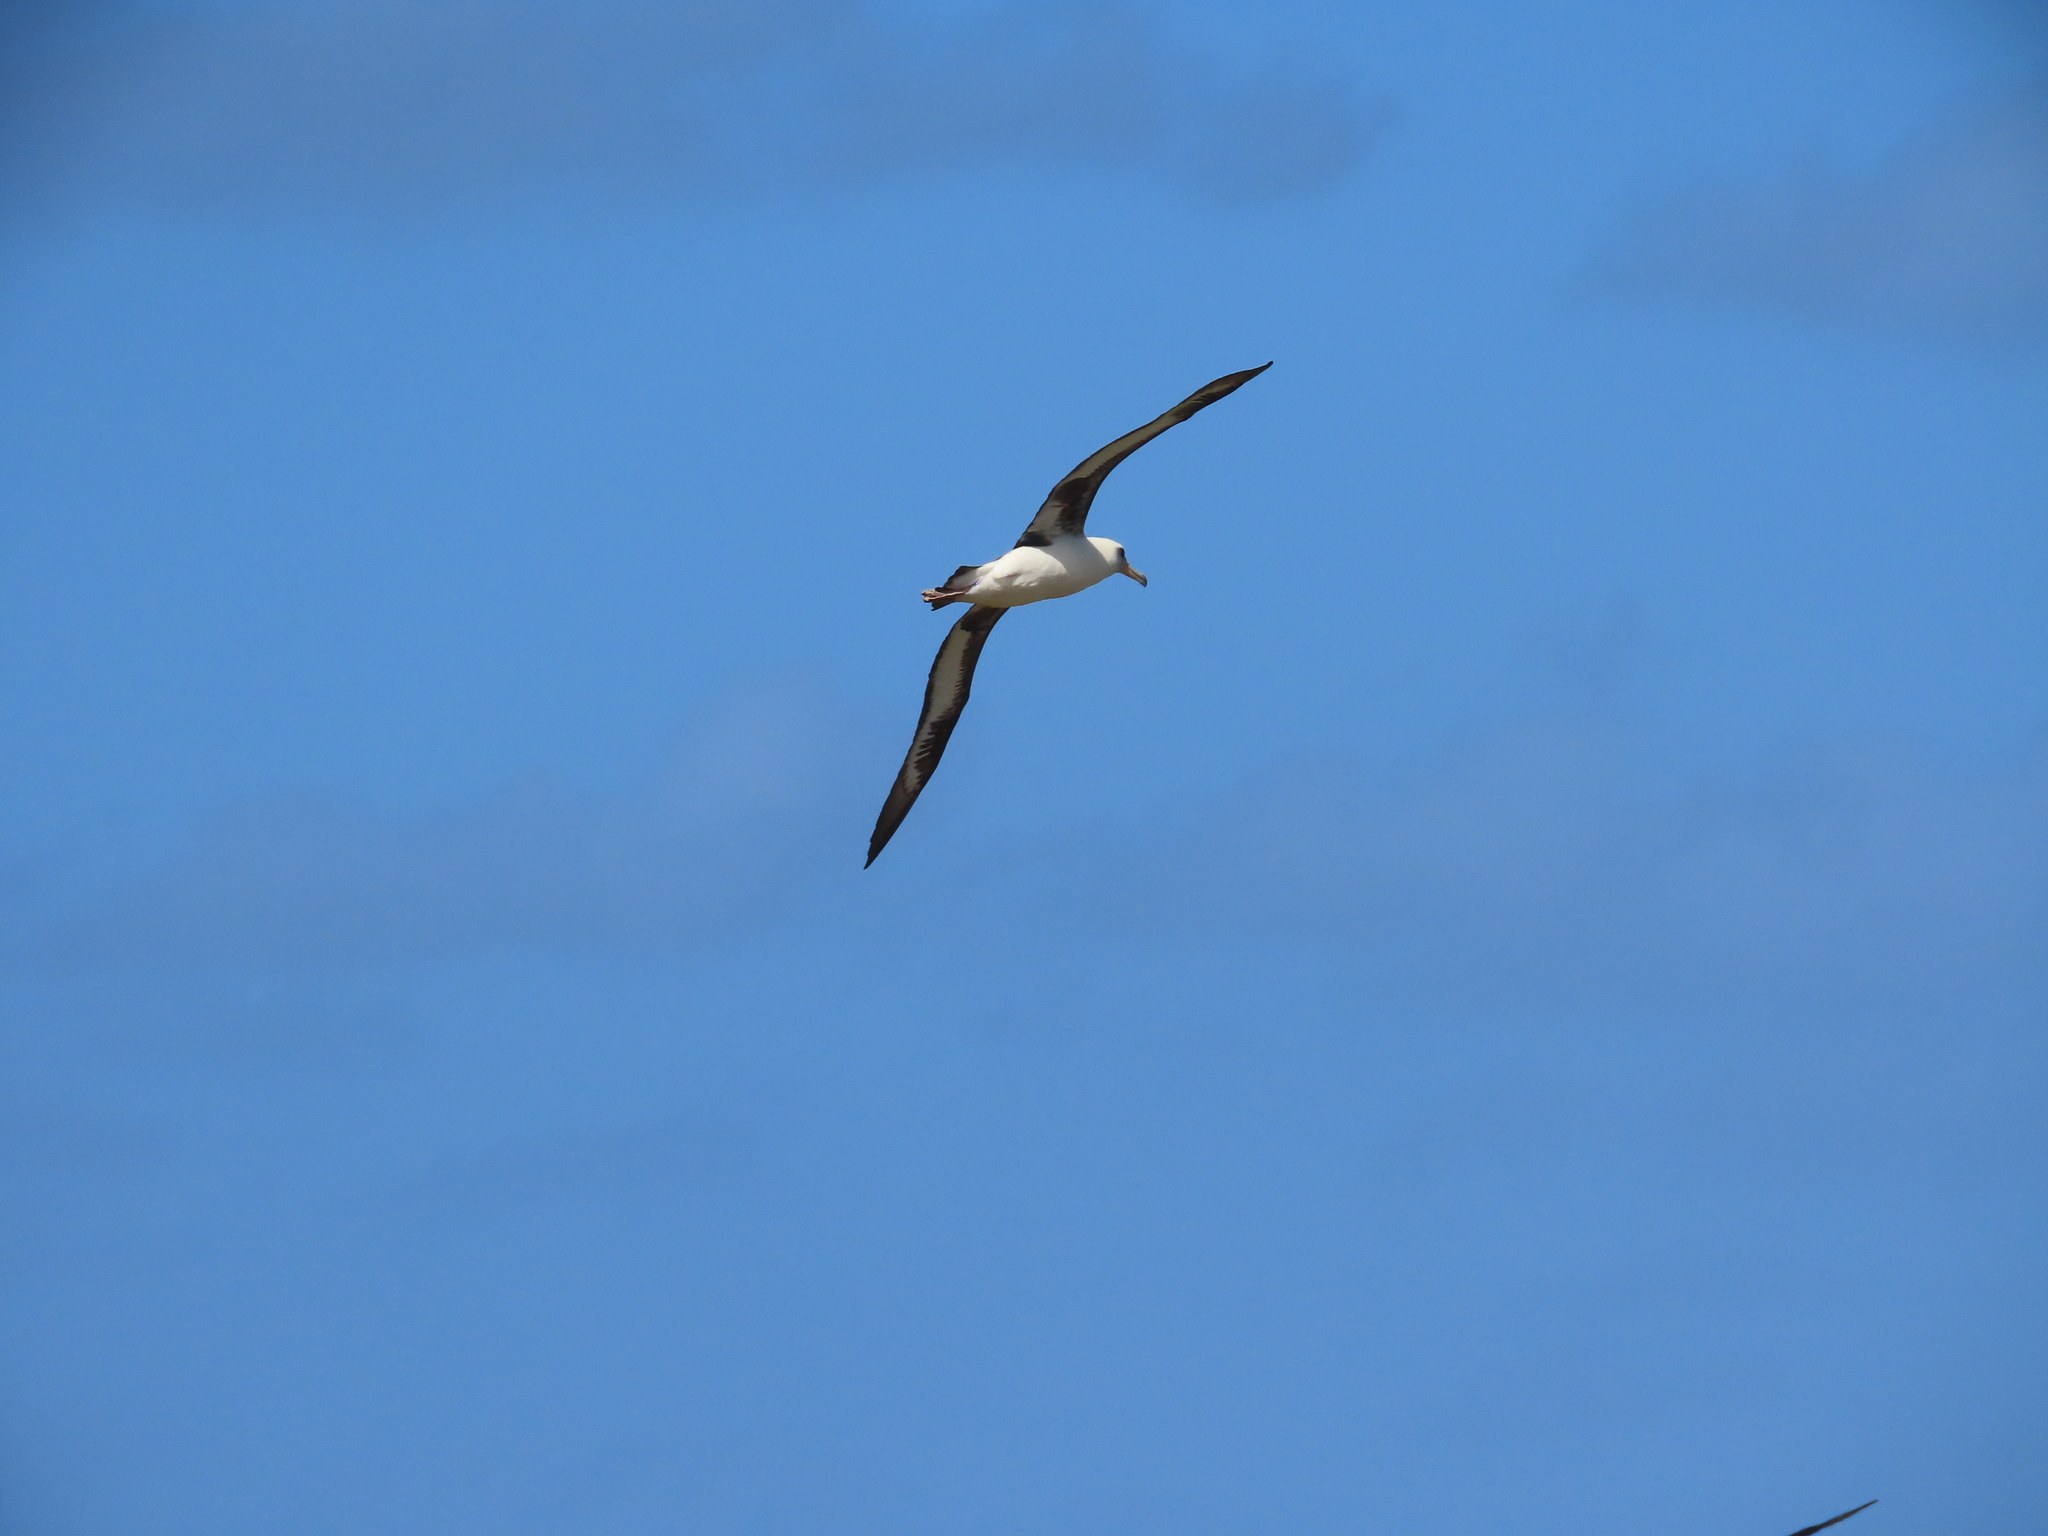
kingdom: Animalia
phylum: Chordata
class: Aves
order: Procellariiformes
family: Diomedeidae
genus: Phoebastria
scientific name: Phoebastria immutabilis
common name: Laysan albatross
